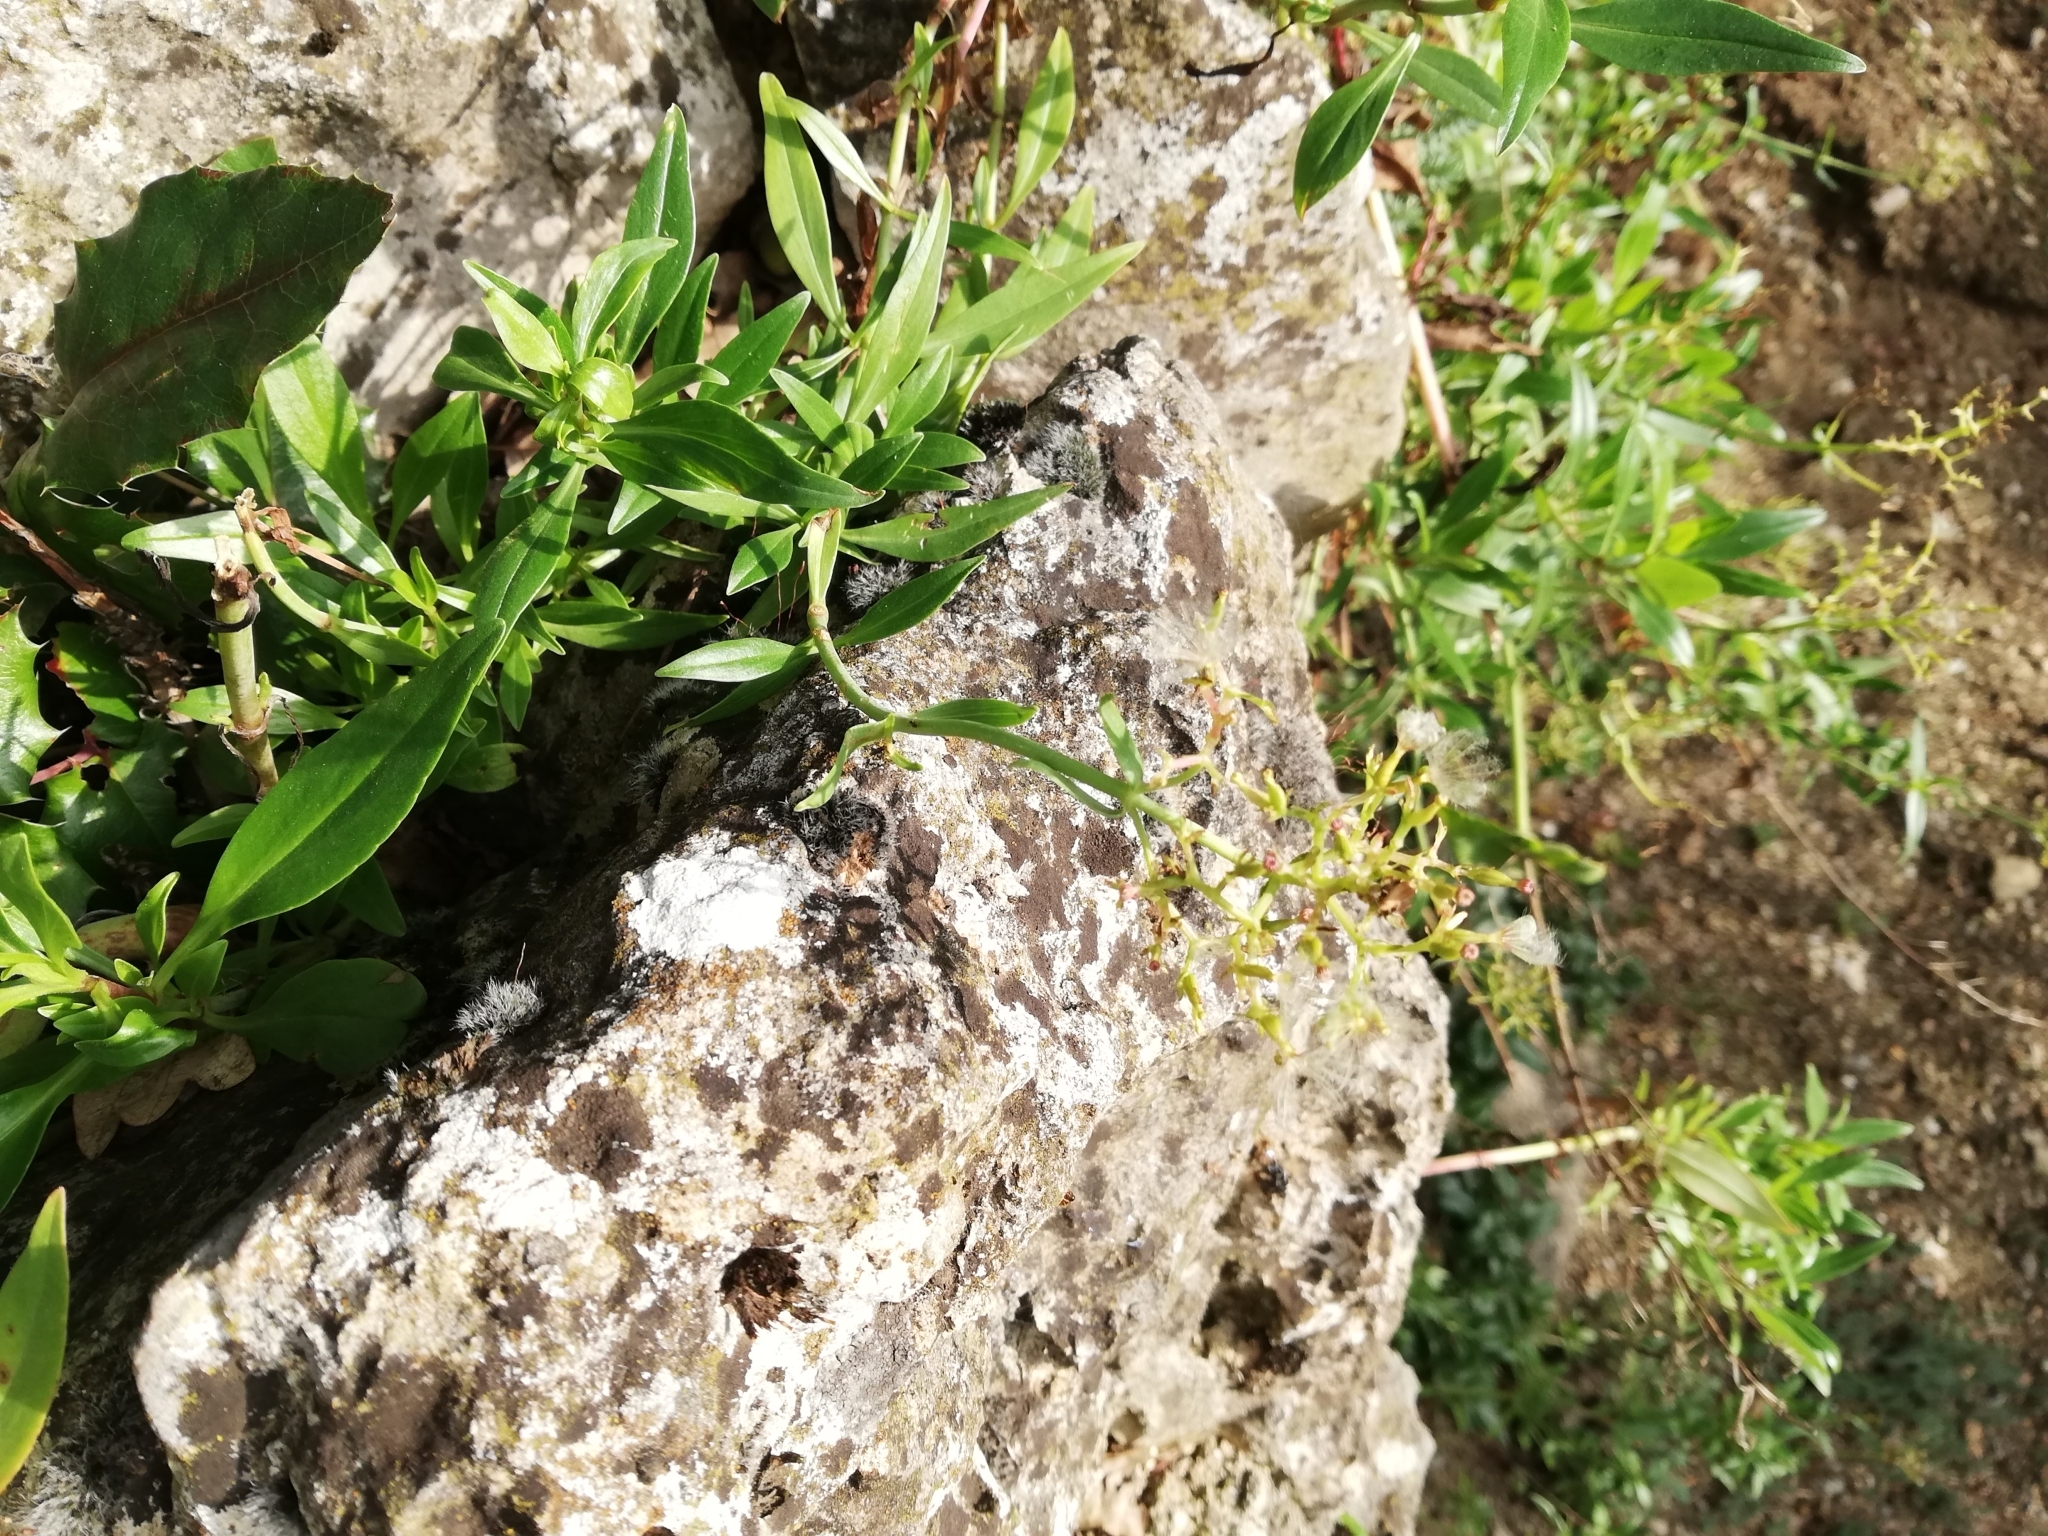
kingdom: Plantae
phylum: Tracheophyta
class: Magnoliopsida
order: Dipsacales
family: Caprifoliaceae
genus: Centranthus
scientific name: Centranthus ruber
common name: Red valerian
